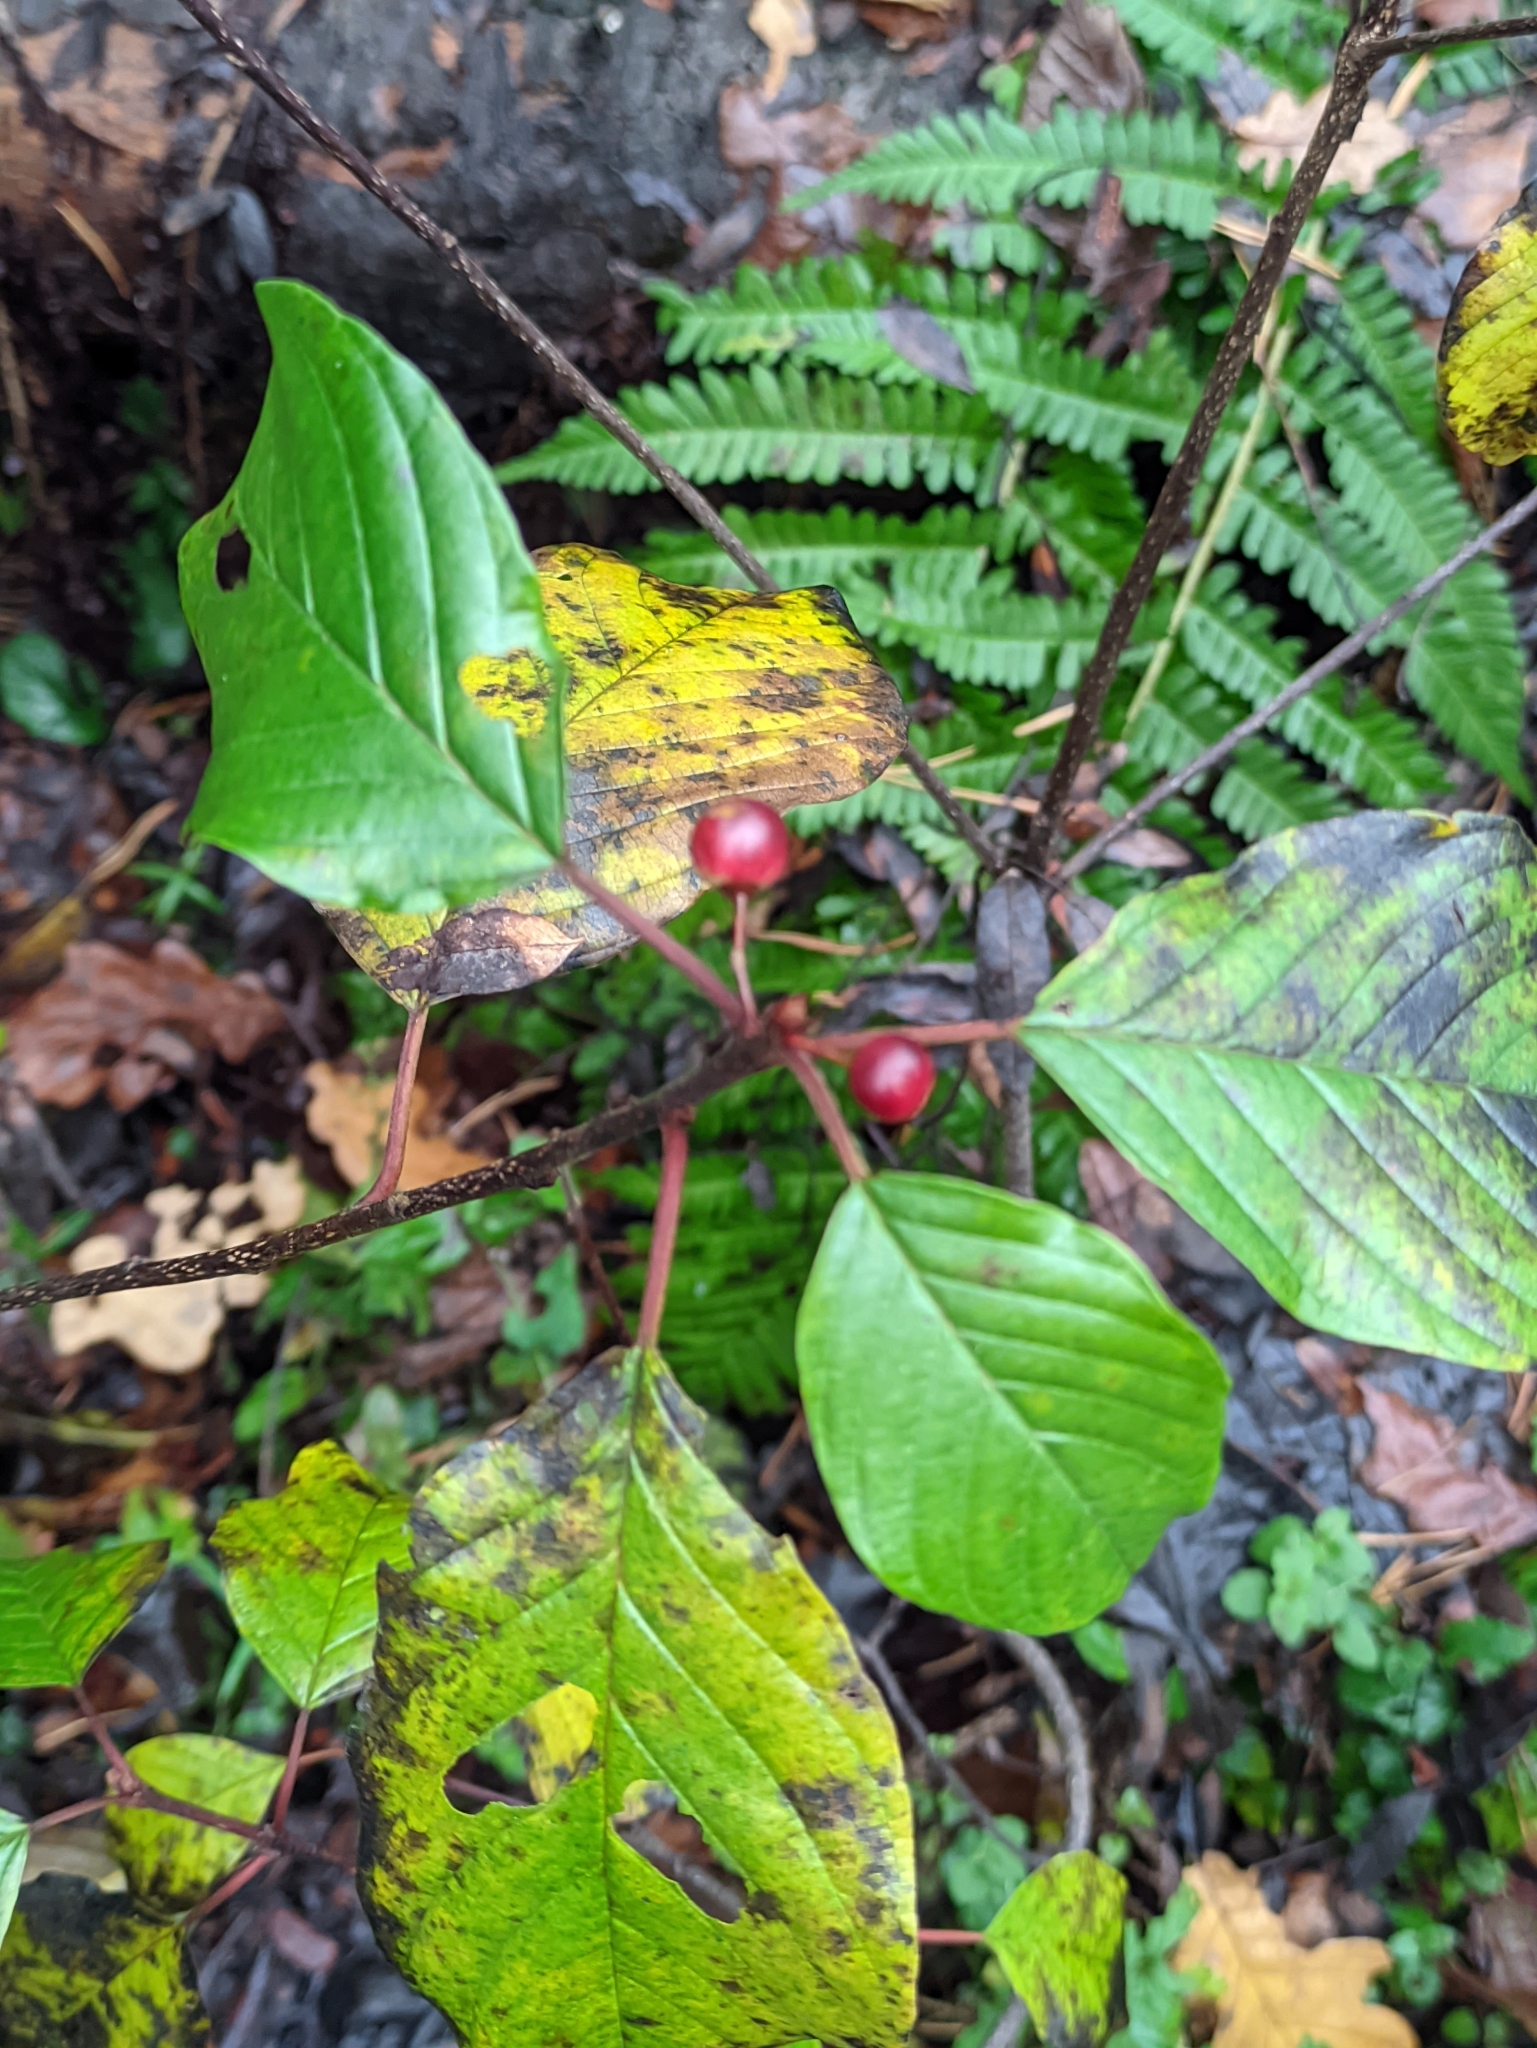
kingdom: Plantae
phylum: Tracheophyta
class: Magnoliopsida
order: Rosales
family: Rhamnaceae
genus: Frangula
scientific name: Frangula alnus
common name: Alder buckthorn
